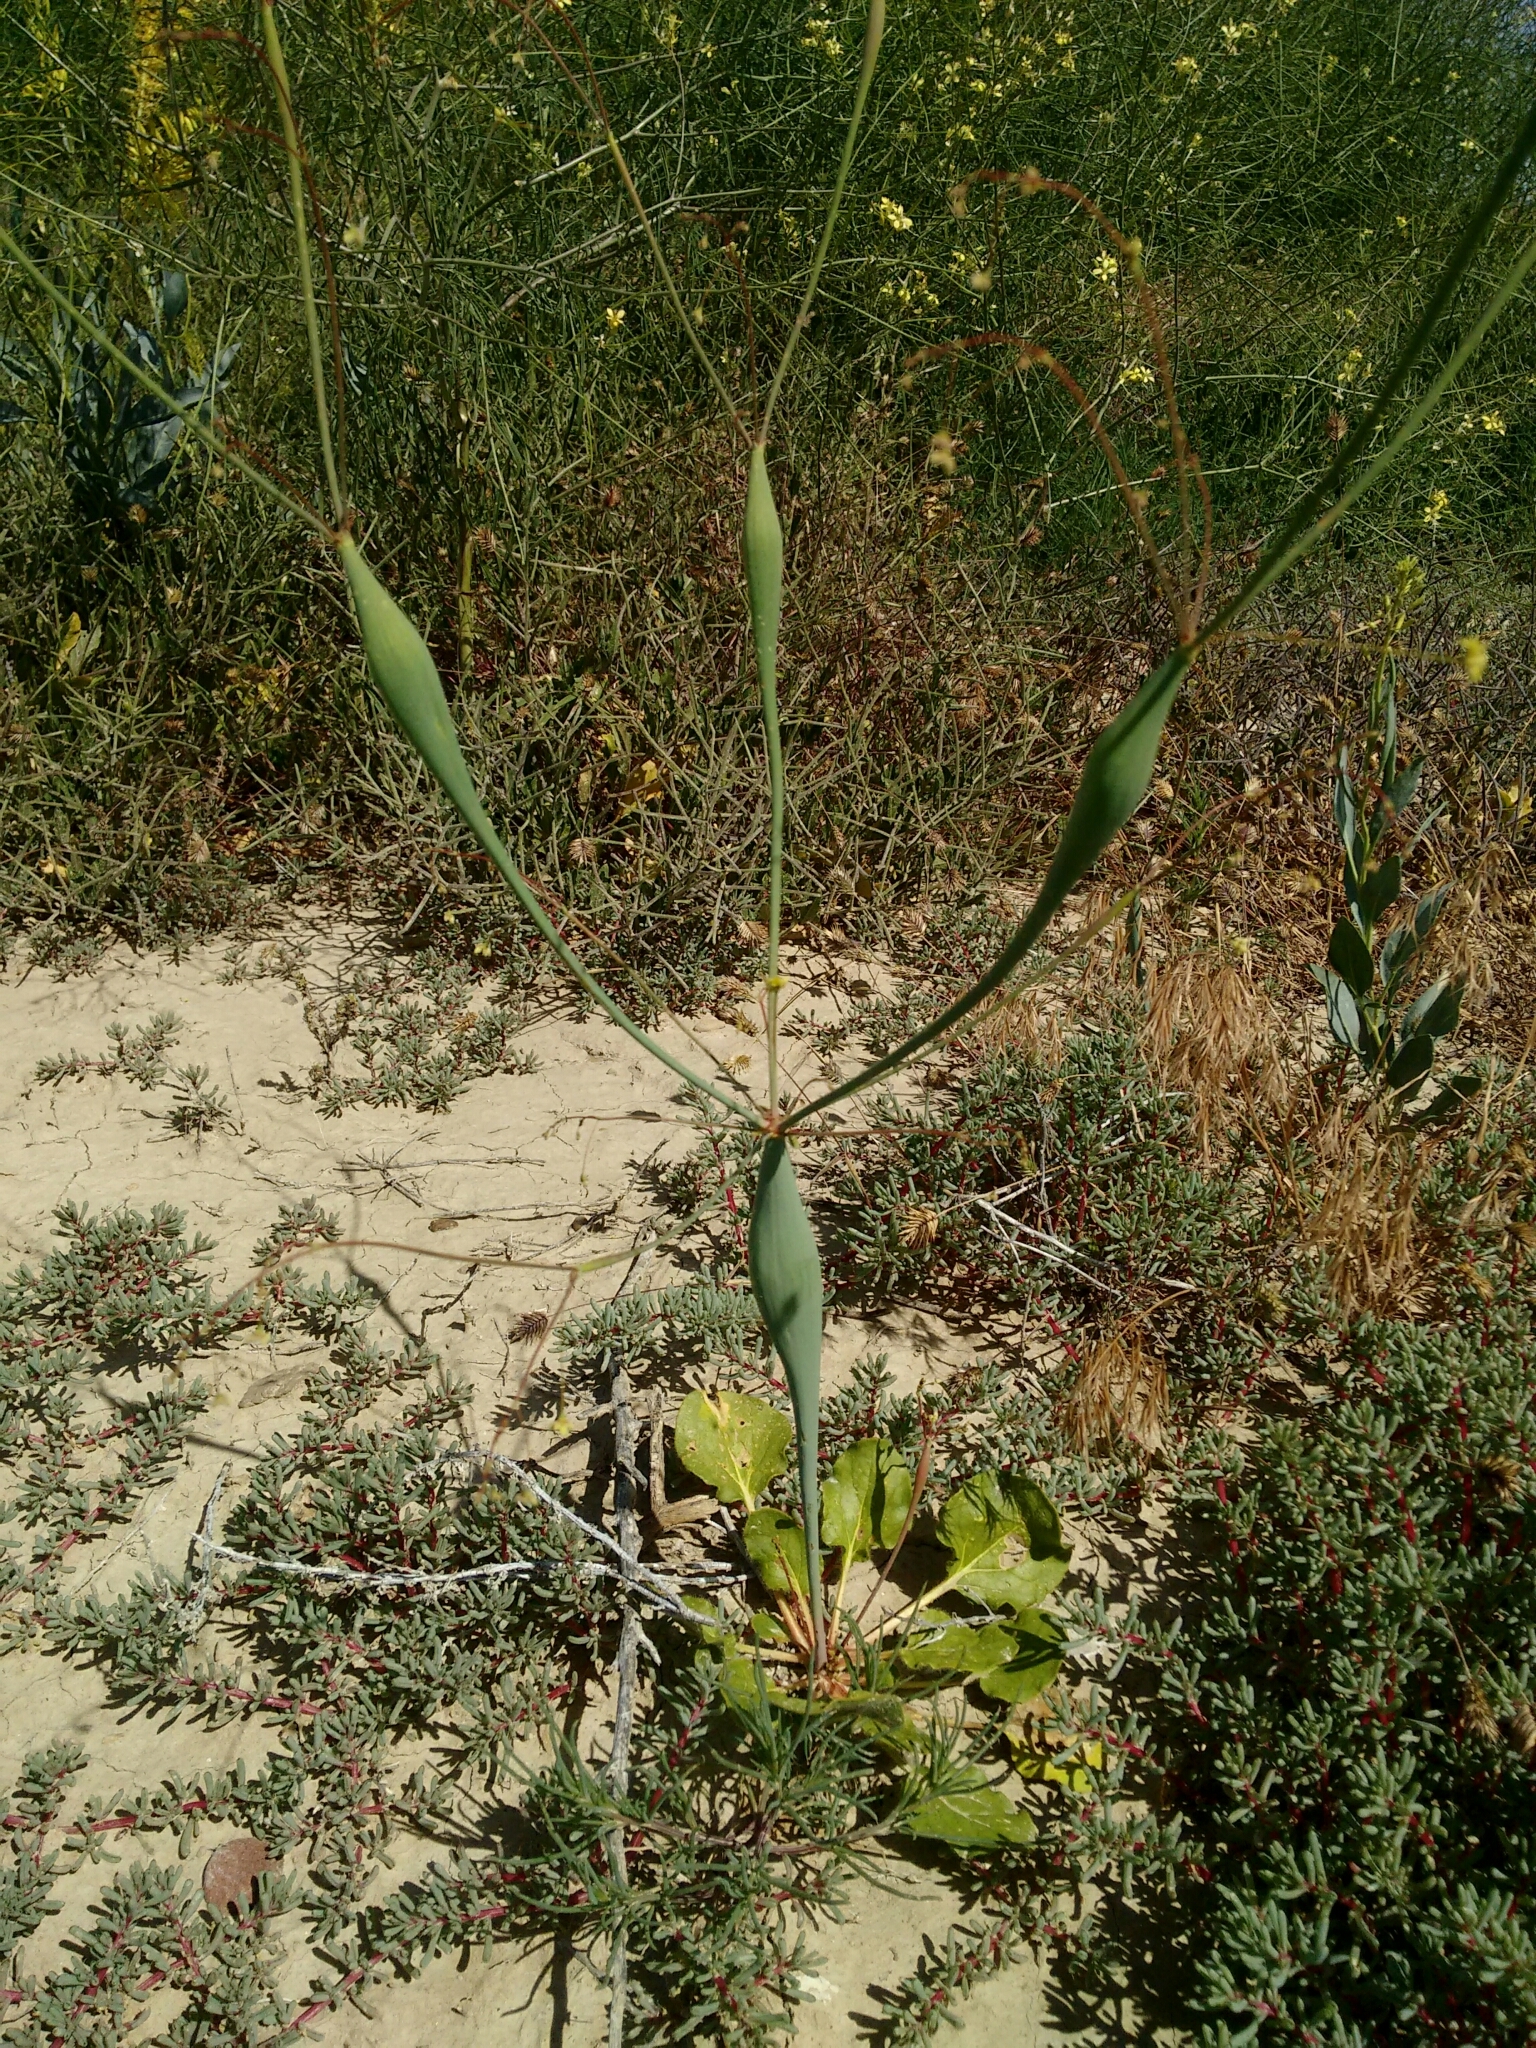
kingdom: Plantae
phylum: Tracheophyta
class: Magnoliopsida
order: Caryophyllales
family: Polygonaceae
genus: Eriogonum
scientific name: Eriogonum inflatum
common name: Desert trumpet
